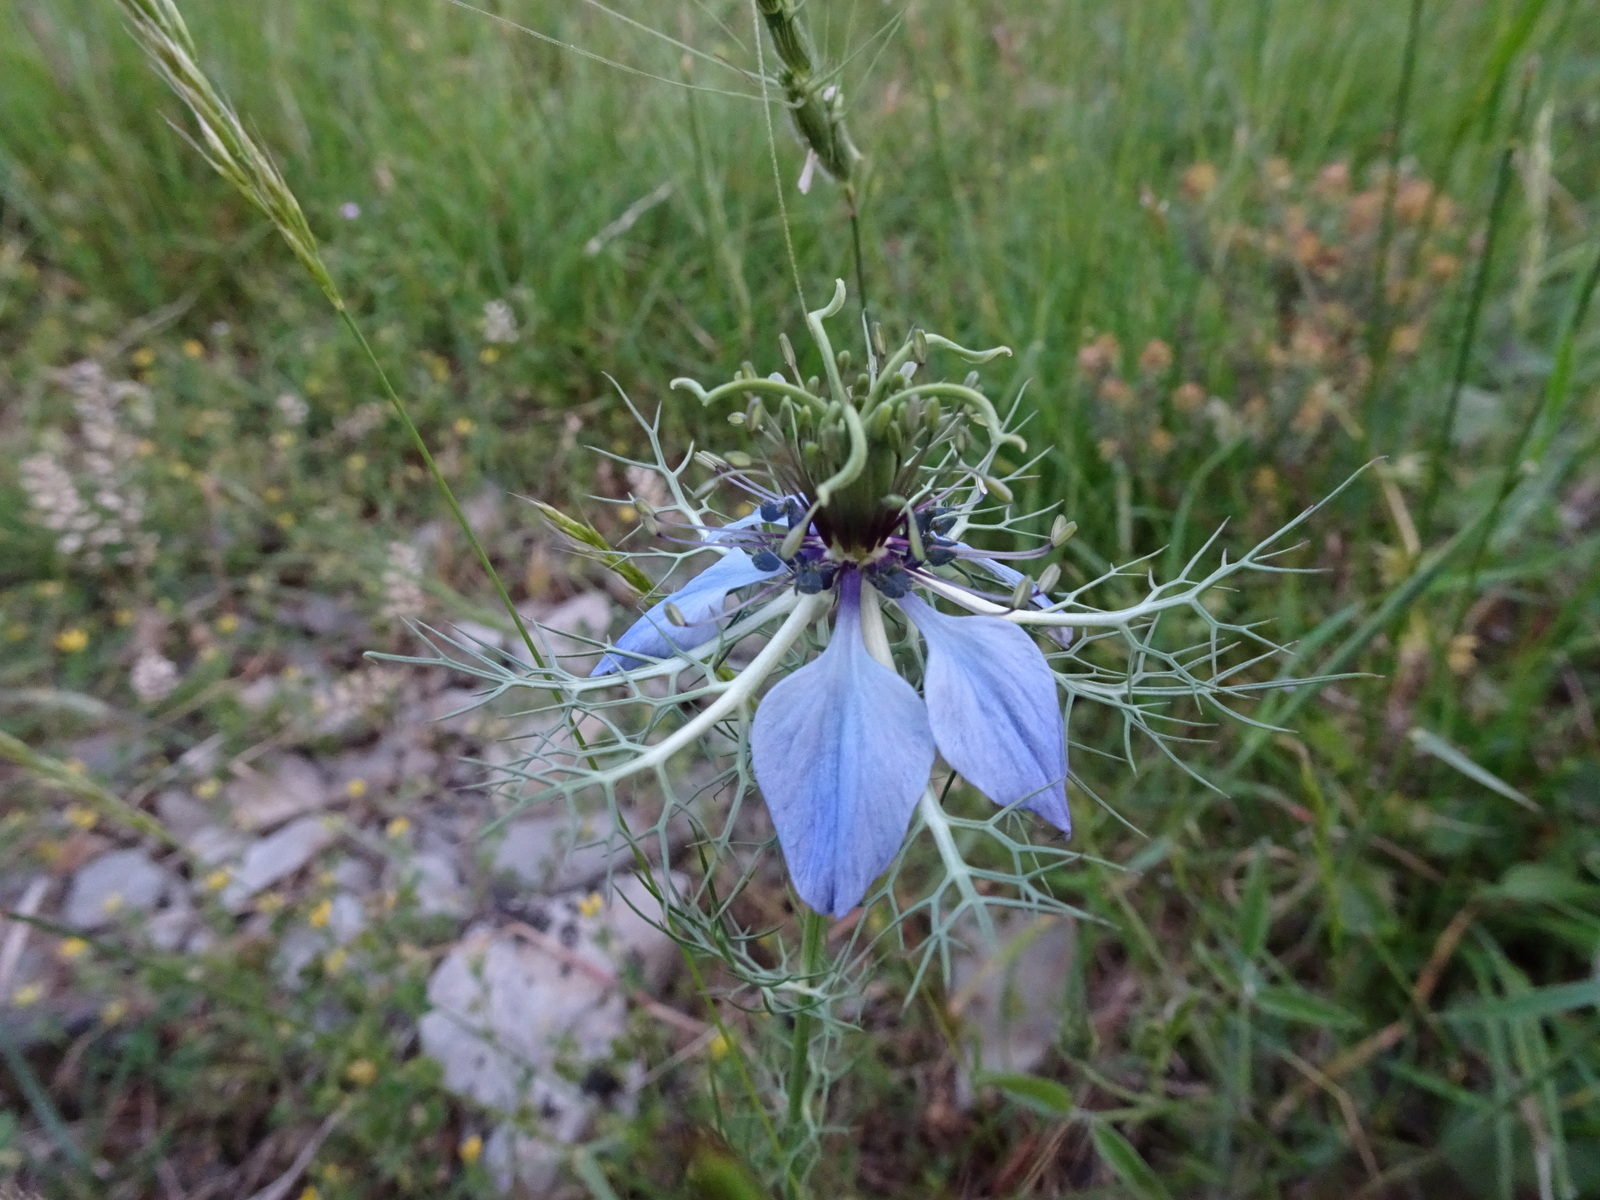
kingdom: Plantae
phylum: Tracheophyta
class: Magnoliopsida
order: Ranunculales
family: Ranunculaceae
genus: Nigella
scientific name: Nigella damascena
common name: Love-in-a-mist
